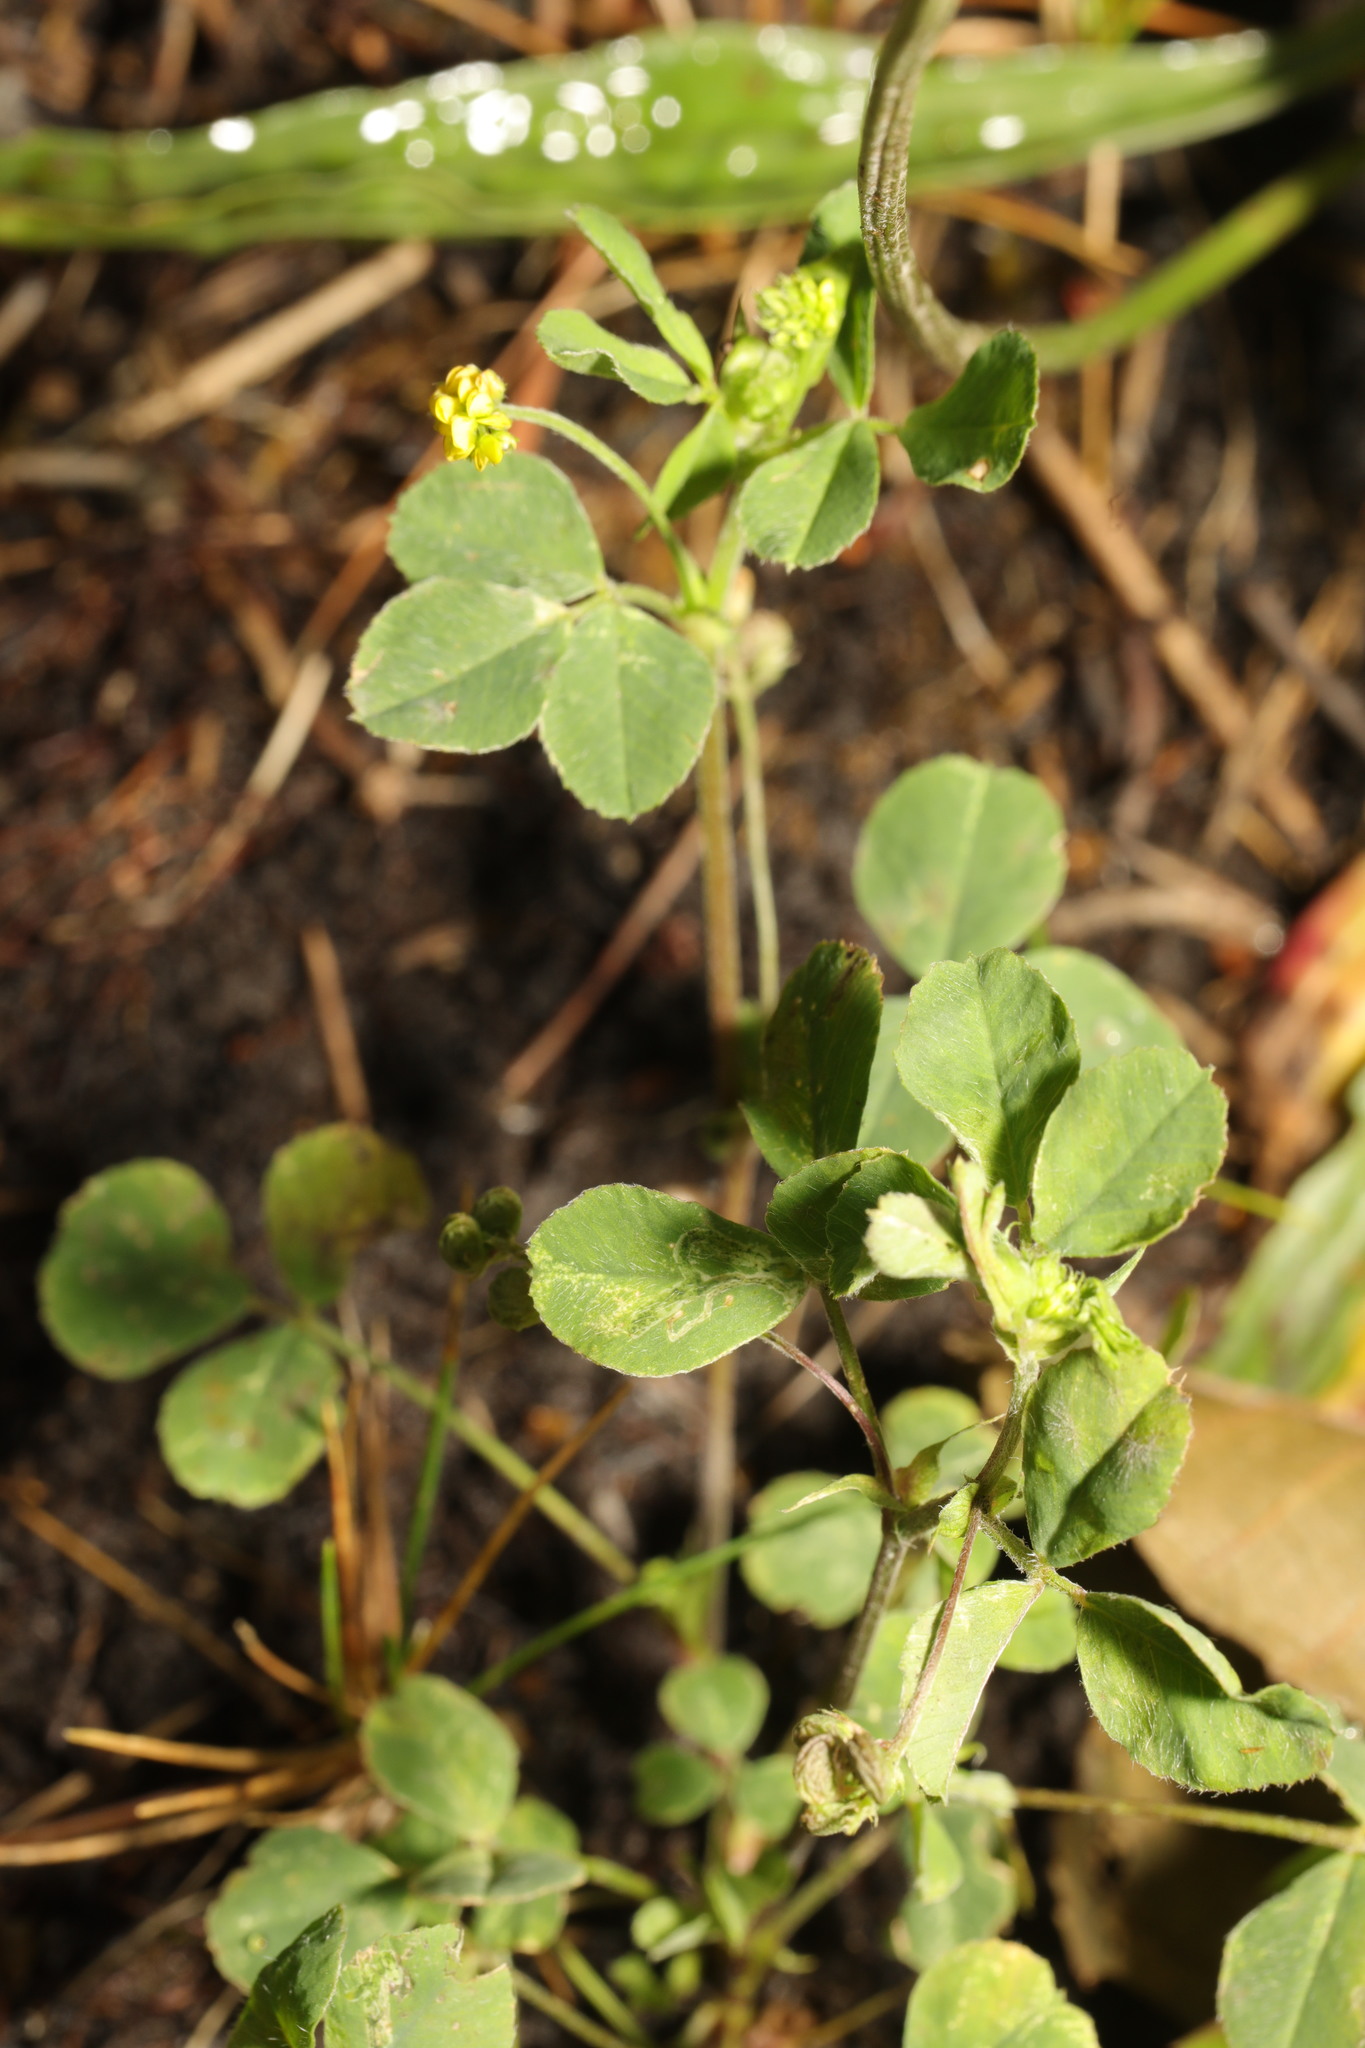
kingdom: Plantae
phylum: Tracheophyta
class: Magnoliopsida
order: Fabales
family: Fabaceae
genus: Medicago
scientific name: Medicago lupulina
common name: Black medick
